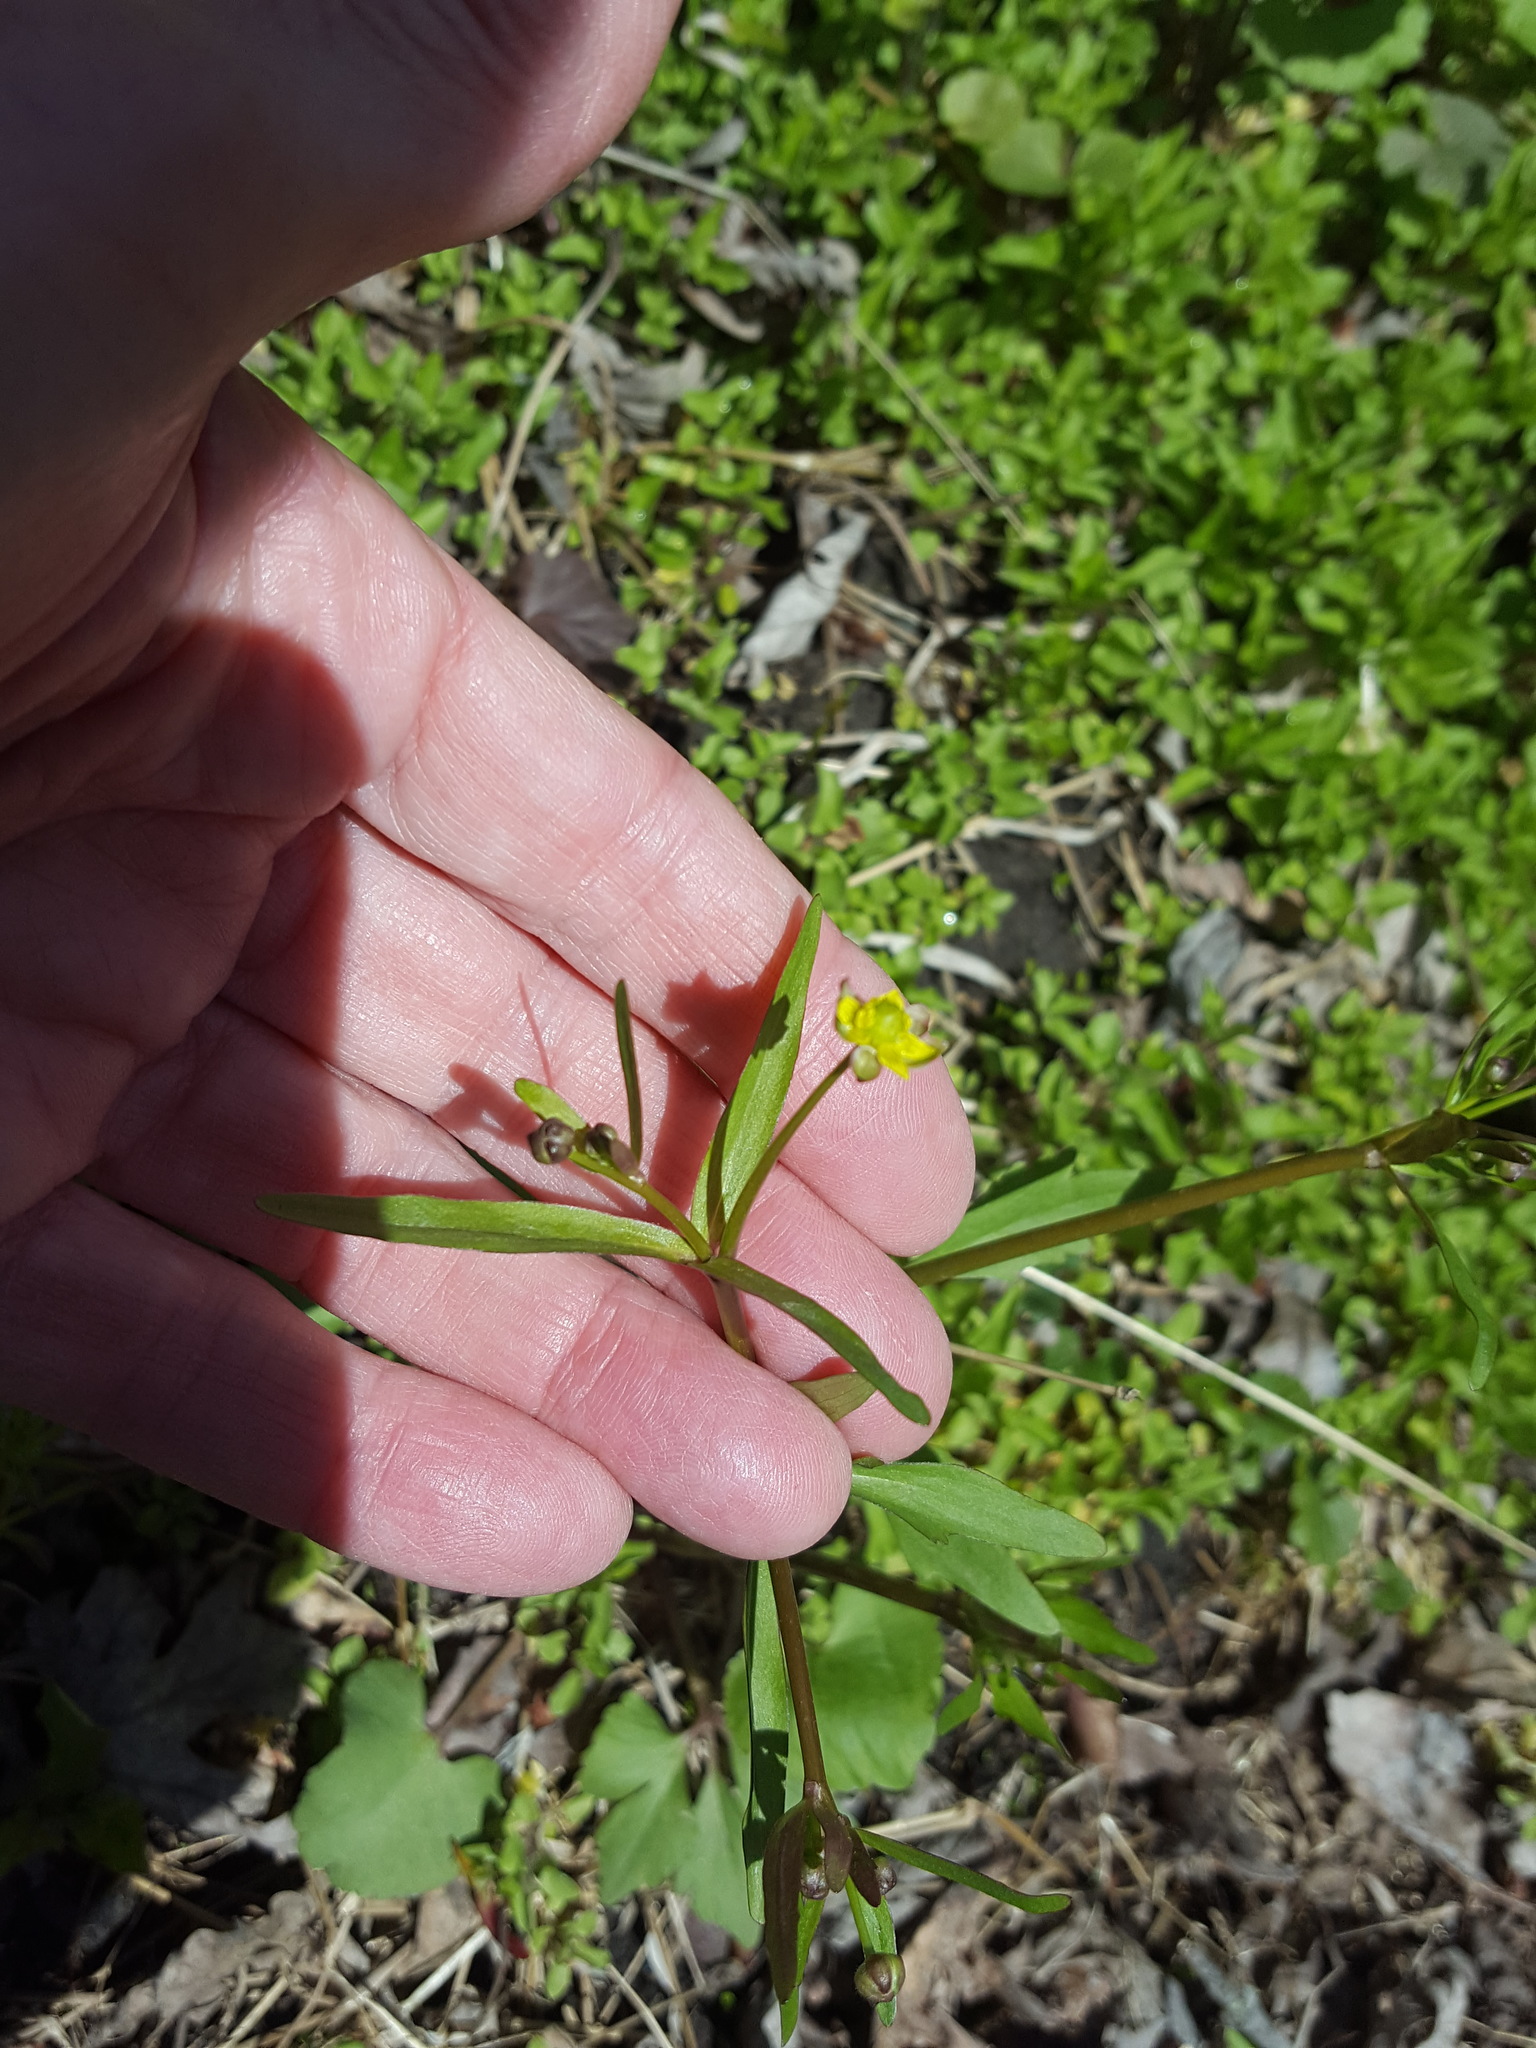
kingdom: Plantae
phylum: Tracheophyta
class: Magnoliopsida
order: Ranunculales
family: Ranunculaceae
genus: Ranunculus
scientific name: Ranunculus abortivus
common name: Early wood buttercup
